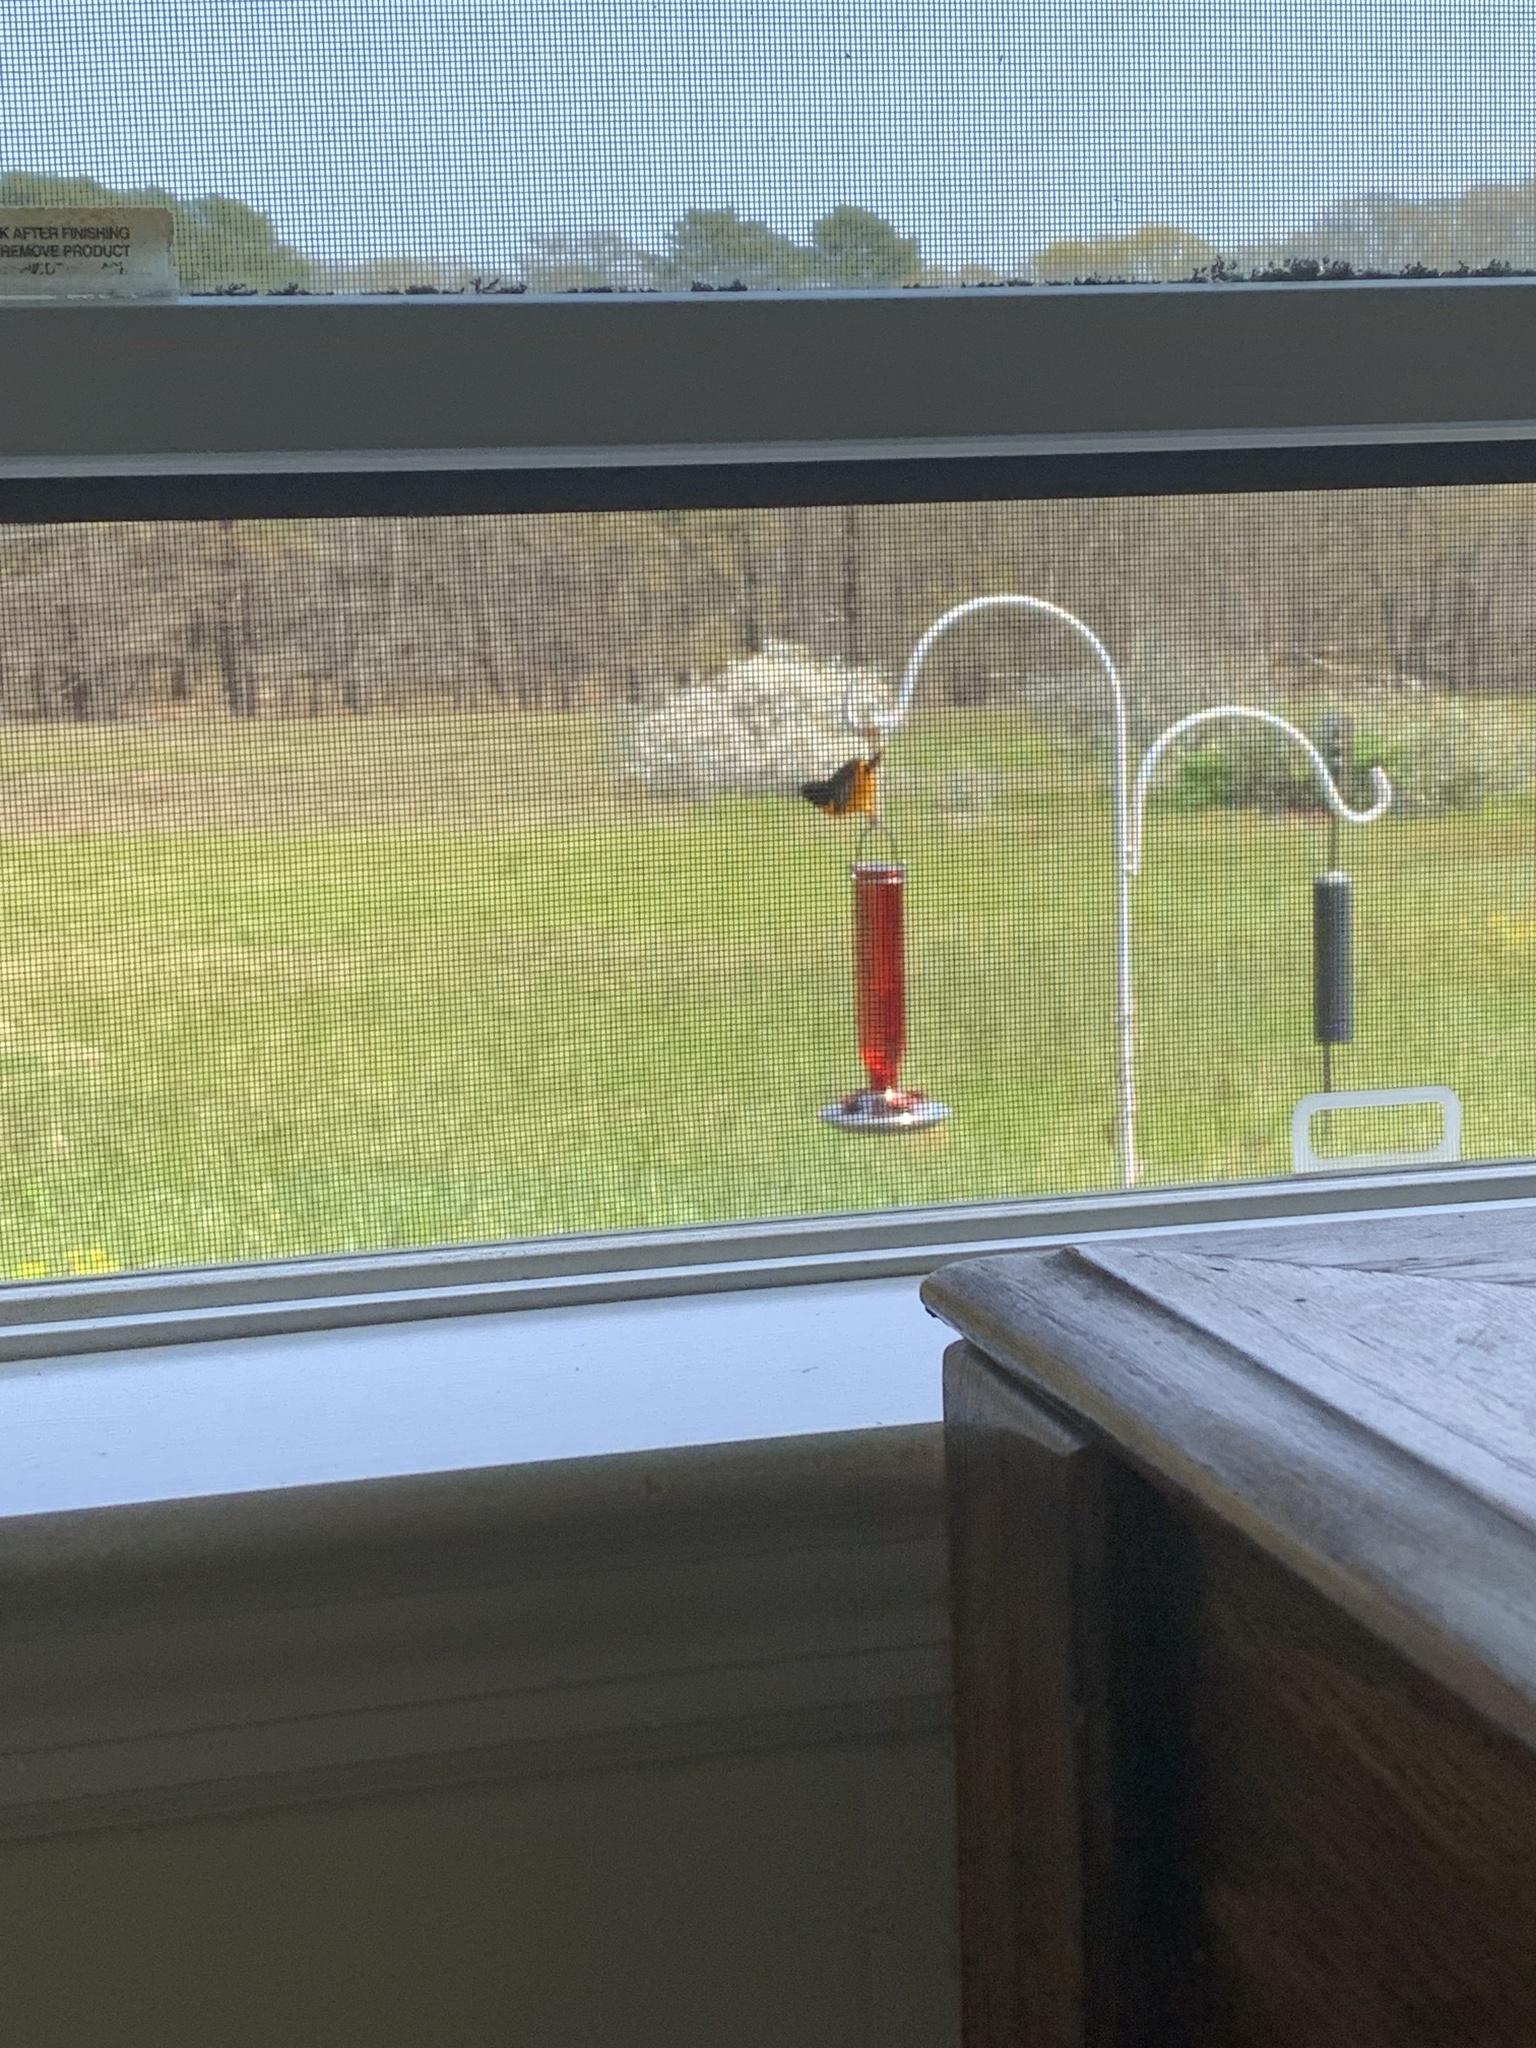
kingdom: Animalia
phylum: Chordata
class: Aves
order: Passeriformes
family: Icteridae
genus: Icterus
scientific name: Icterus galbula
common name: Baltimore oriole
